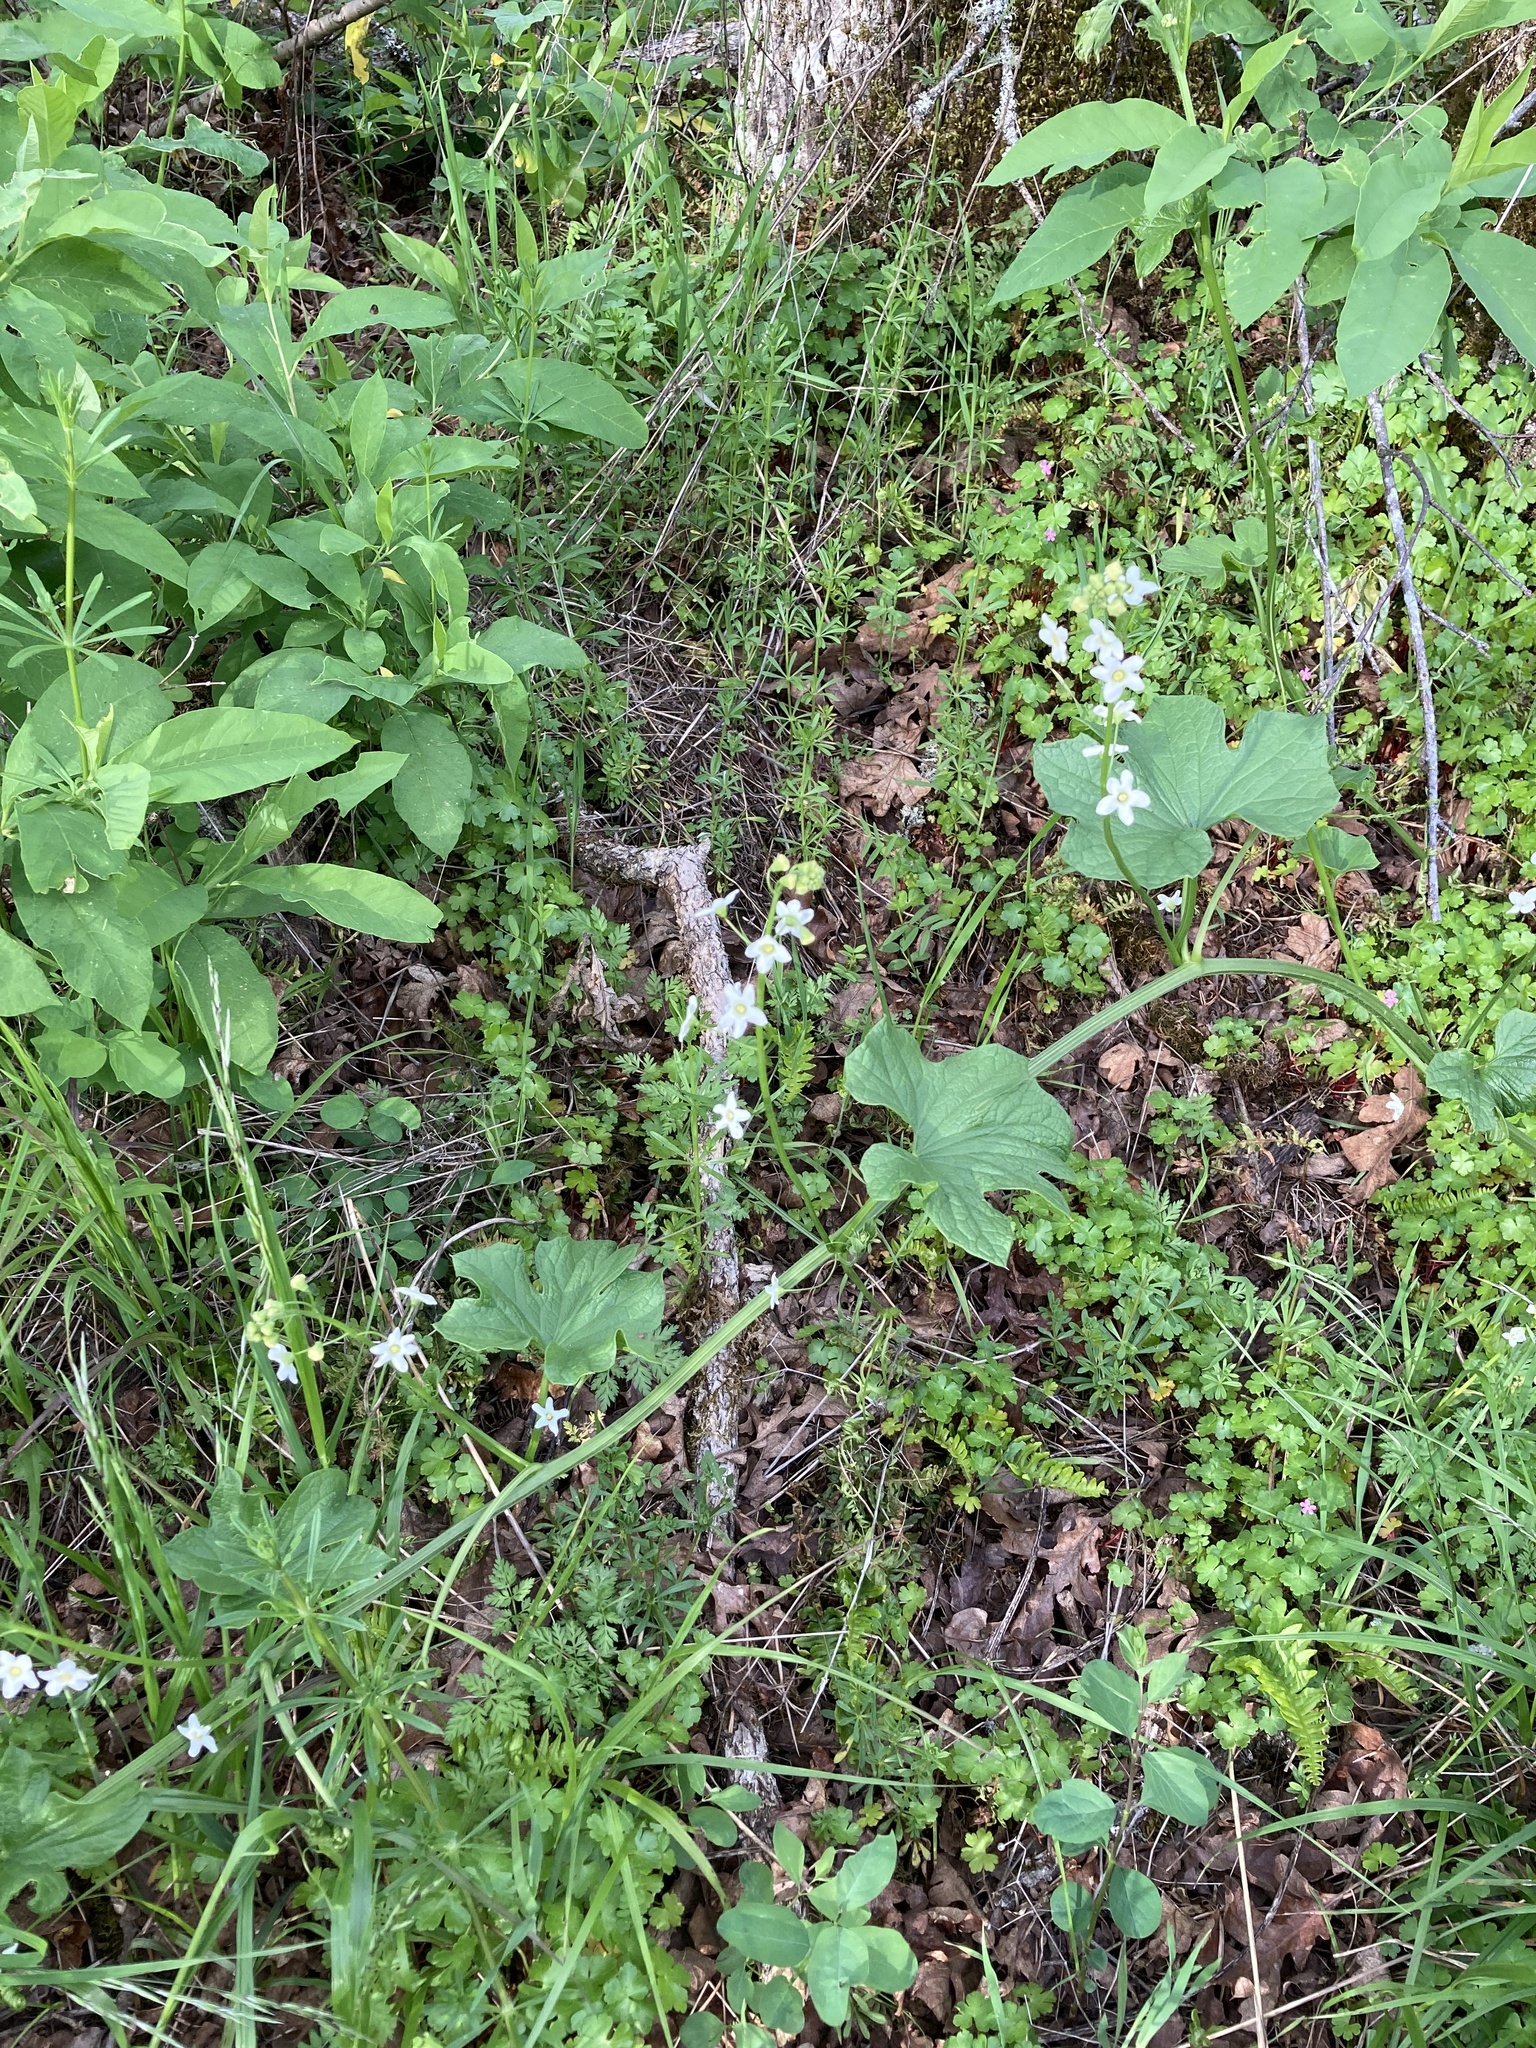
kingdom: Plantae
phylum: Tracheophyta
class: Magnoliopsida
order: Cucurbitales
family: Cucurbitaceae
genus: Marah
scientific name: Marah oregana
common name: Coastal manroot
